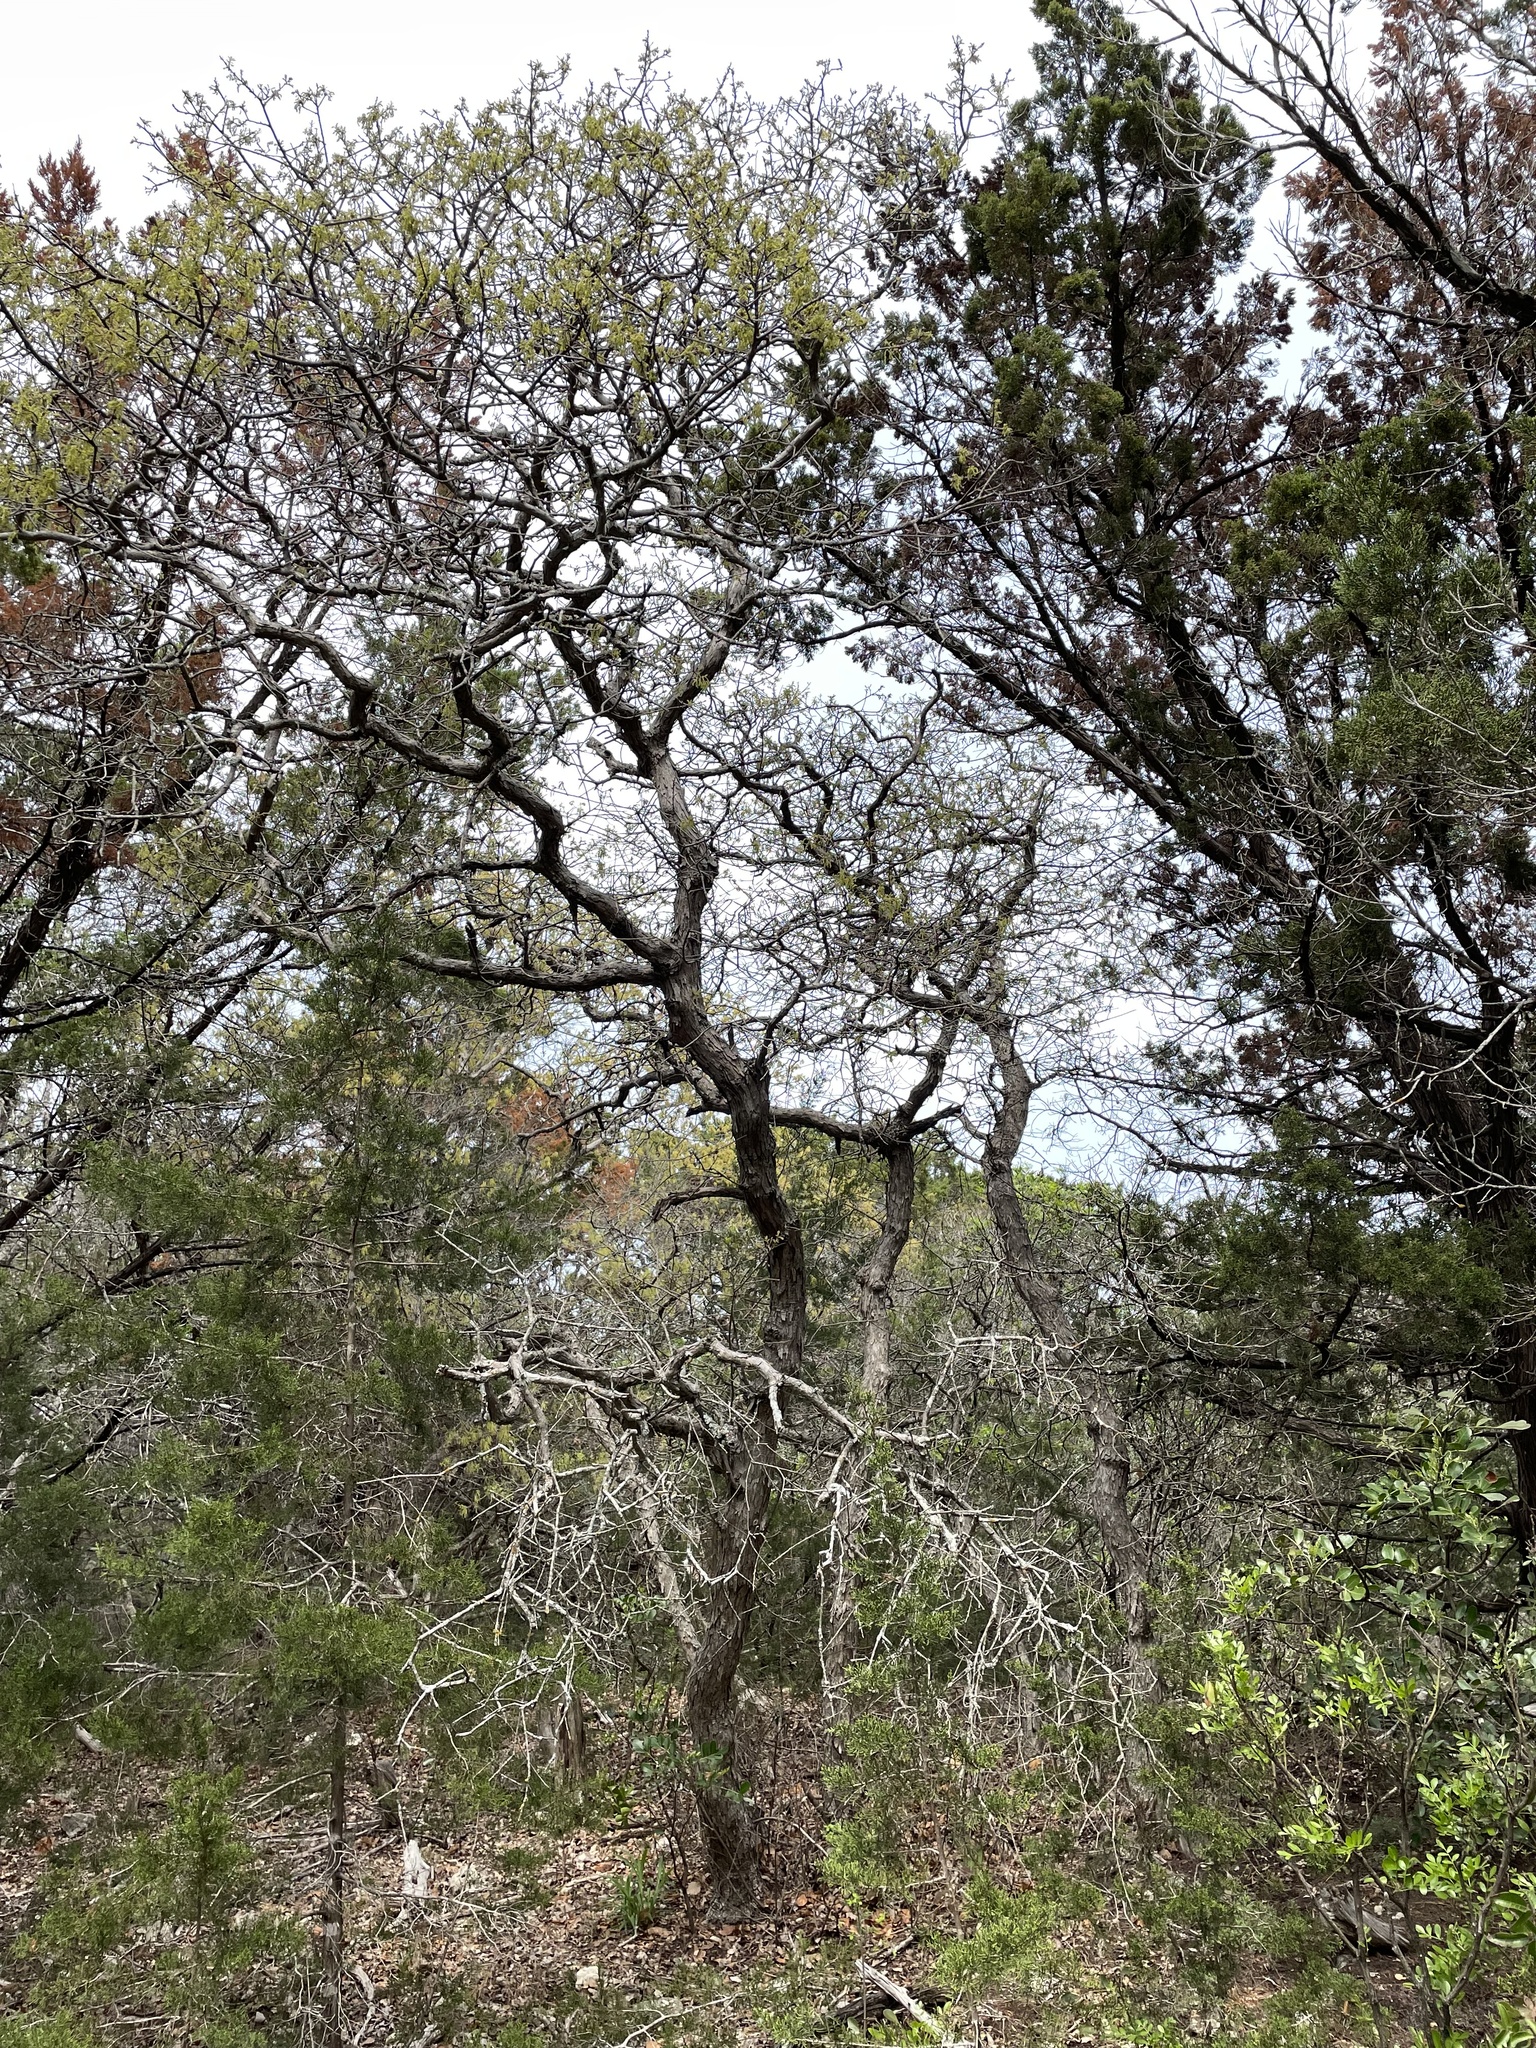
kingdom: Plantae
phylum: Tracheophyta
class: Magnoliopsida
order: Fagales
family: Fagaceae
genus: Quercus
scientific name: Quercus sinuata
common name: Durand oak
